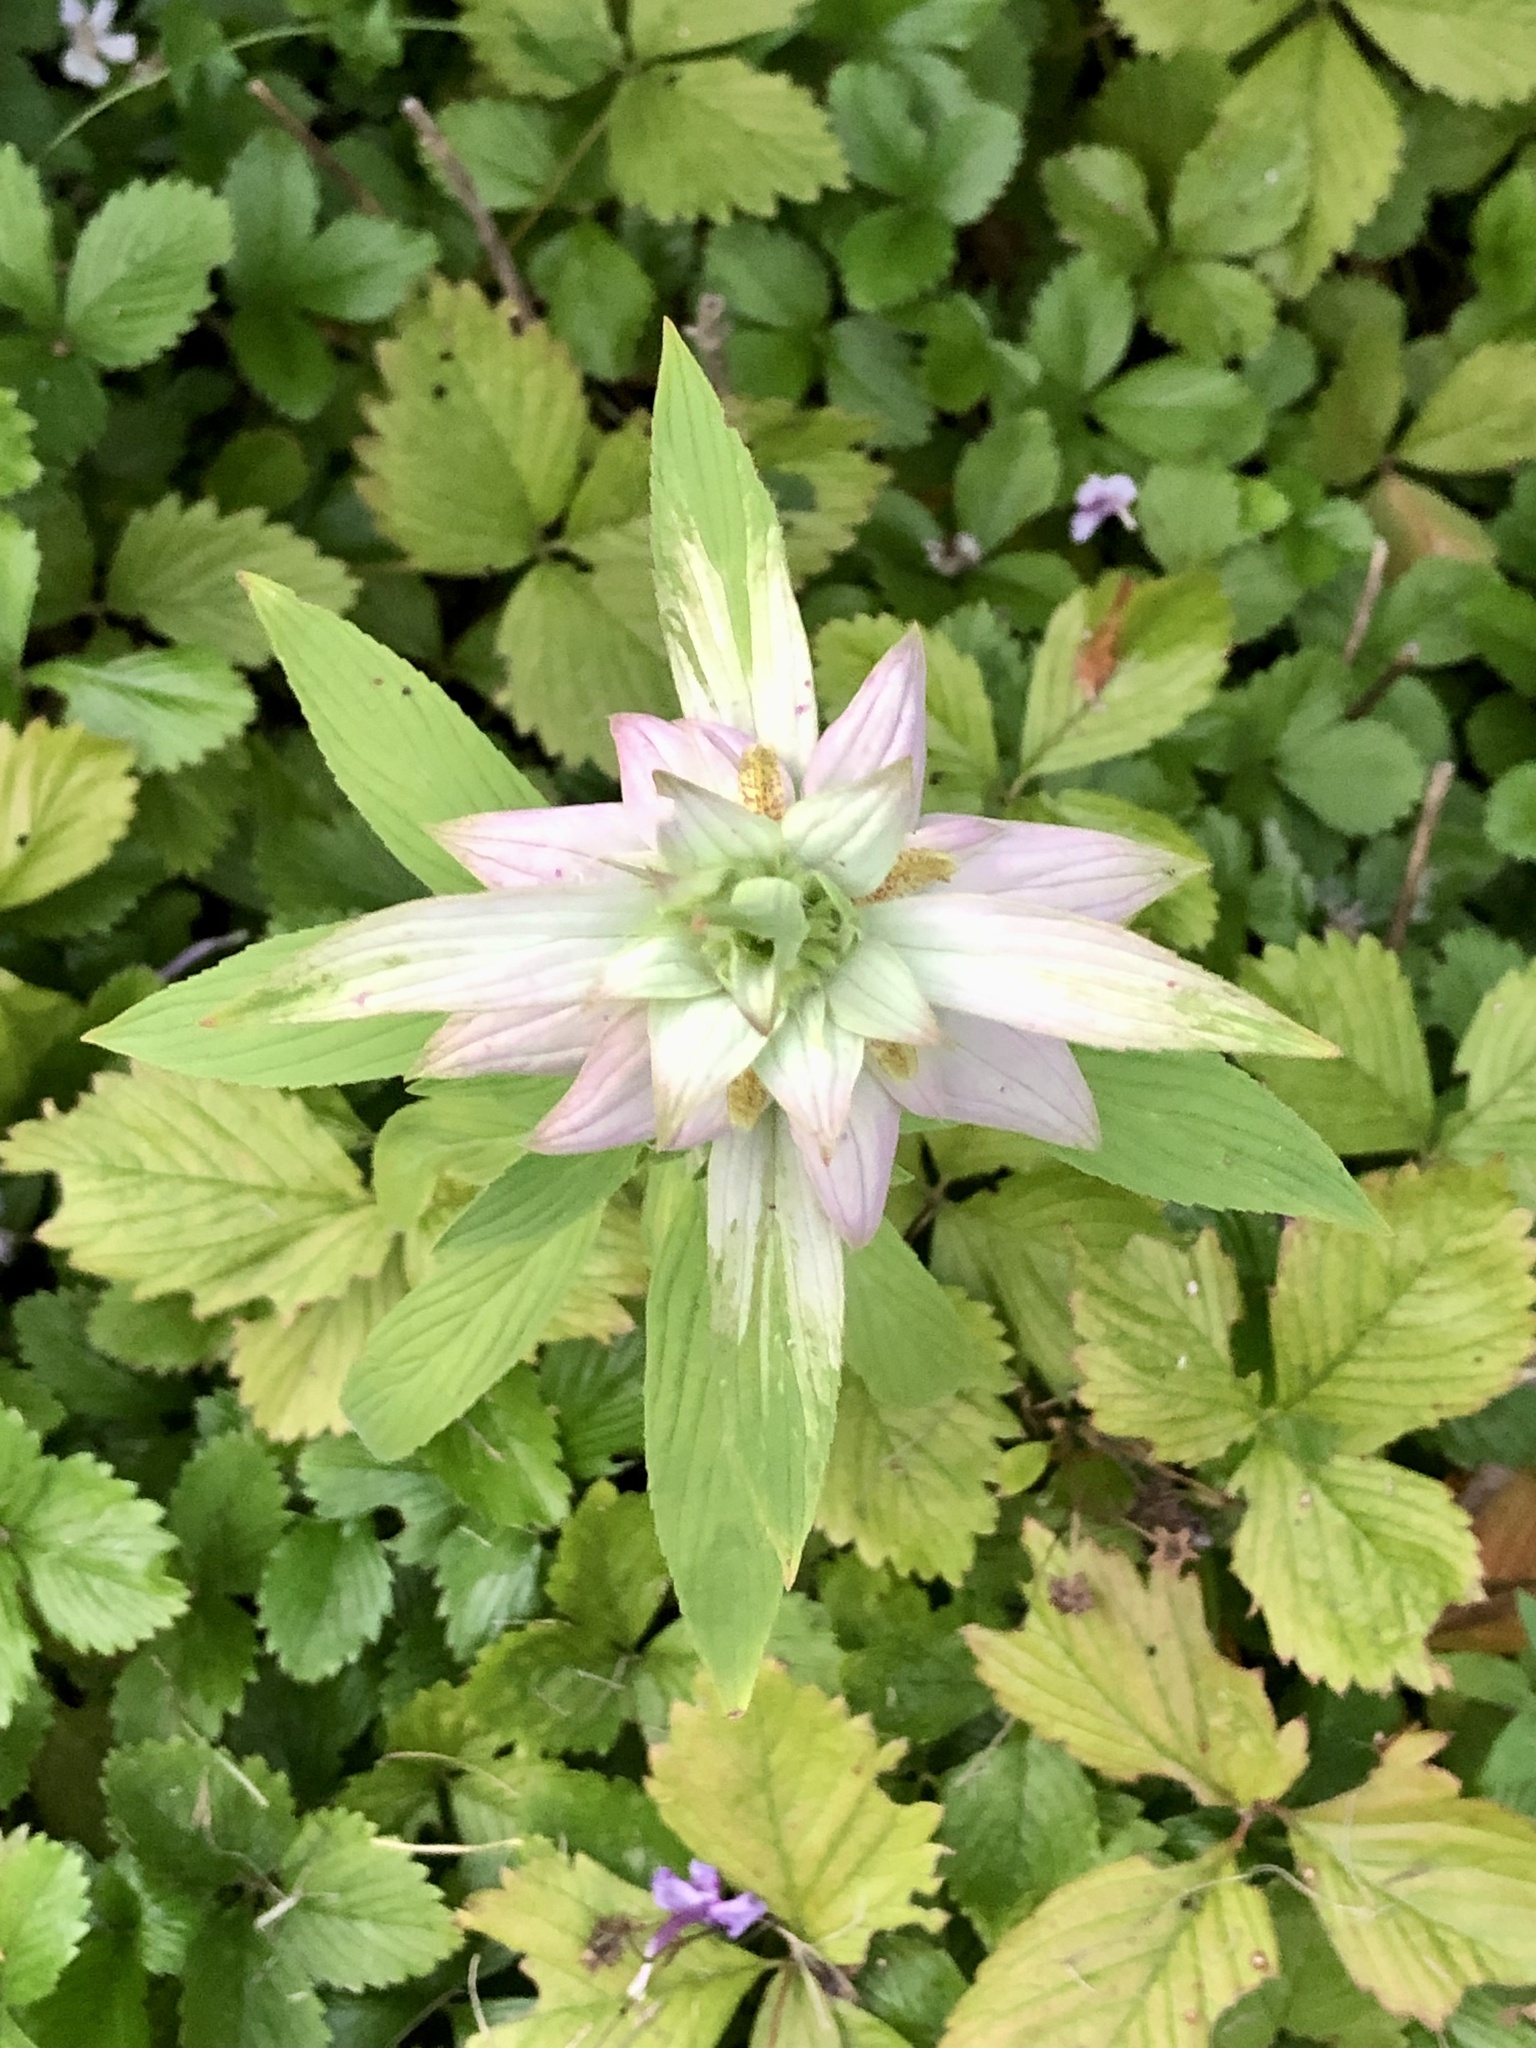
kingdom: Plantae
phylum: Tracheophyta
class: Magnoliopsida
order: Lamiales
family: Lamiaceae
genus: Monarda
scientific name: Monarda punctata
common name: Dotted monarda
